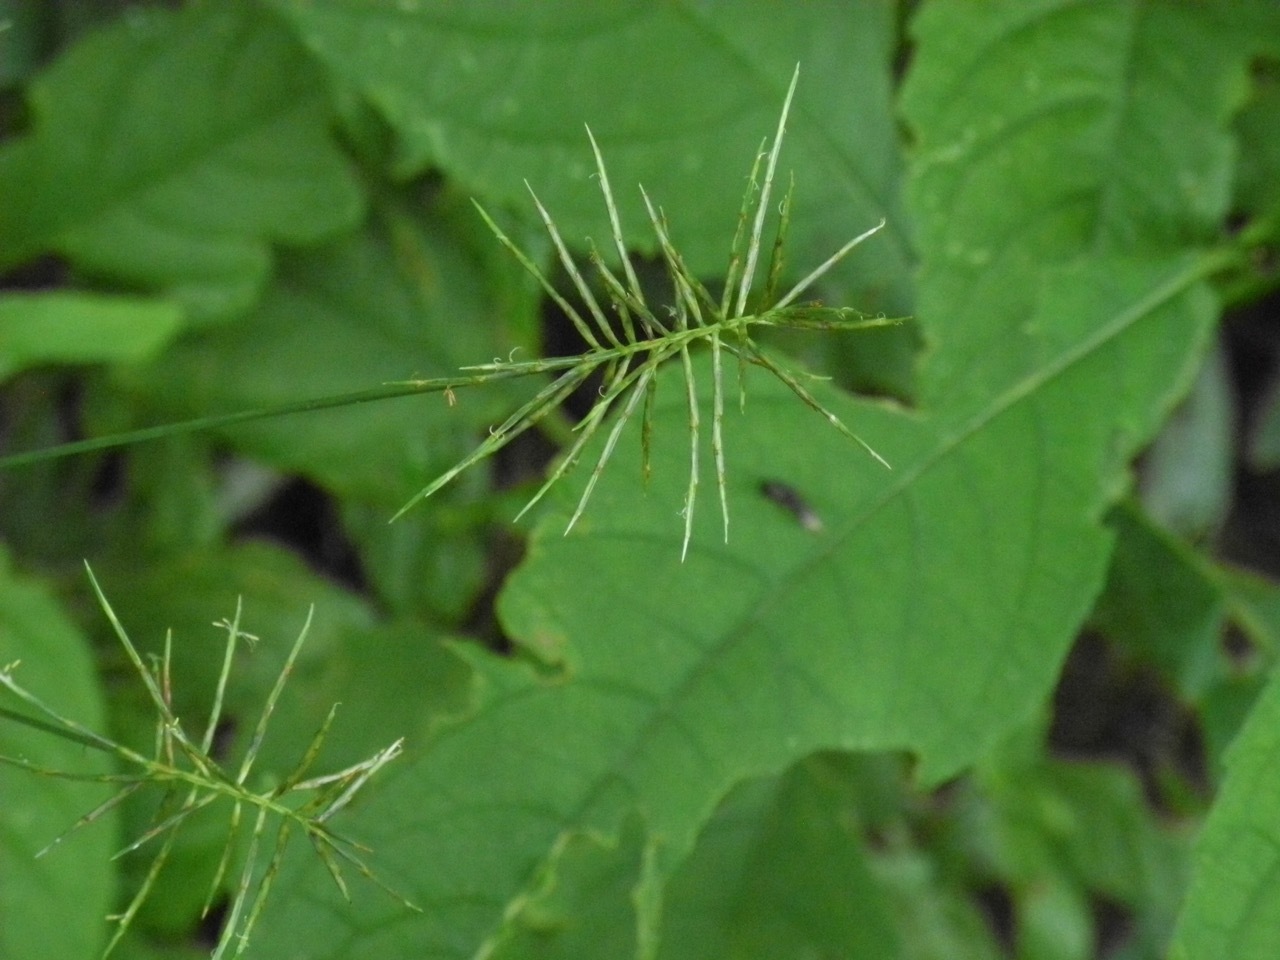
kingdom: Plantae
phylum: Tracheophyta
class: Liliopsida
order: Poales
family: Cyperaceae
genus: Cyperus
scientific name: Cyperus refractus
